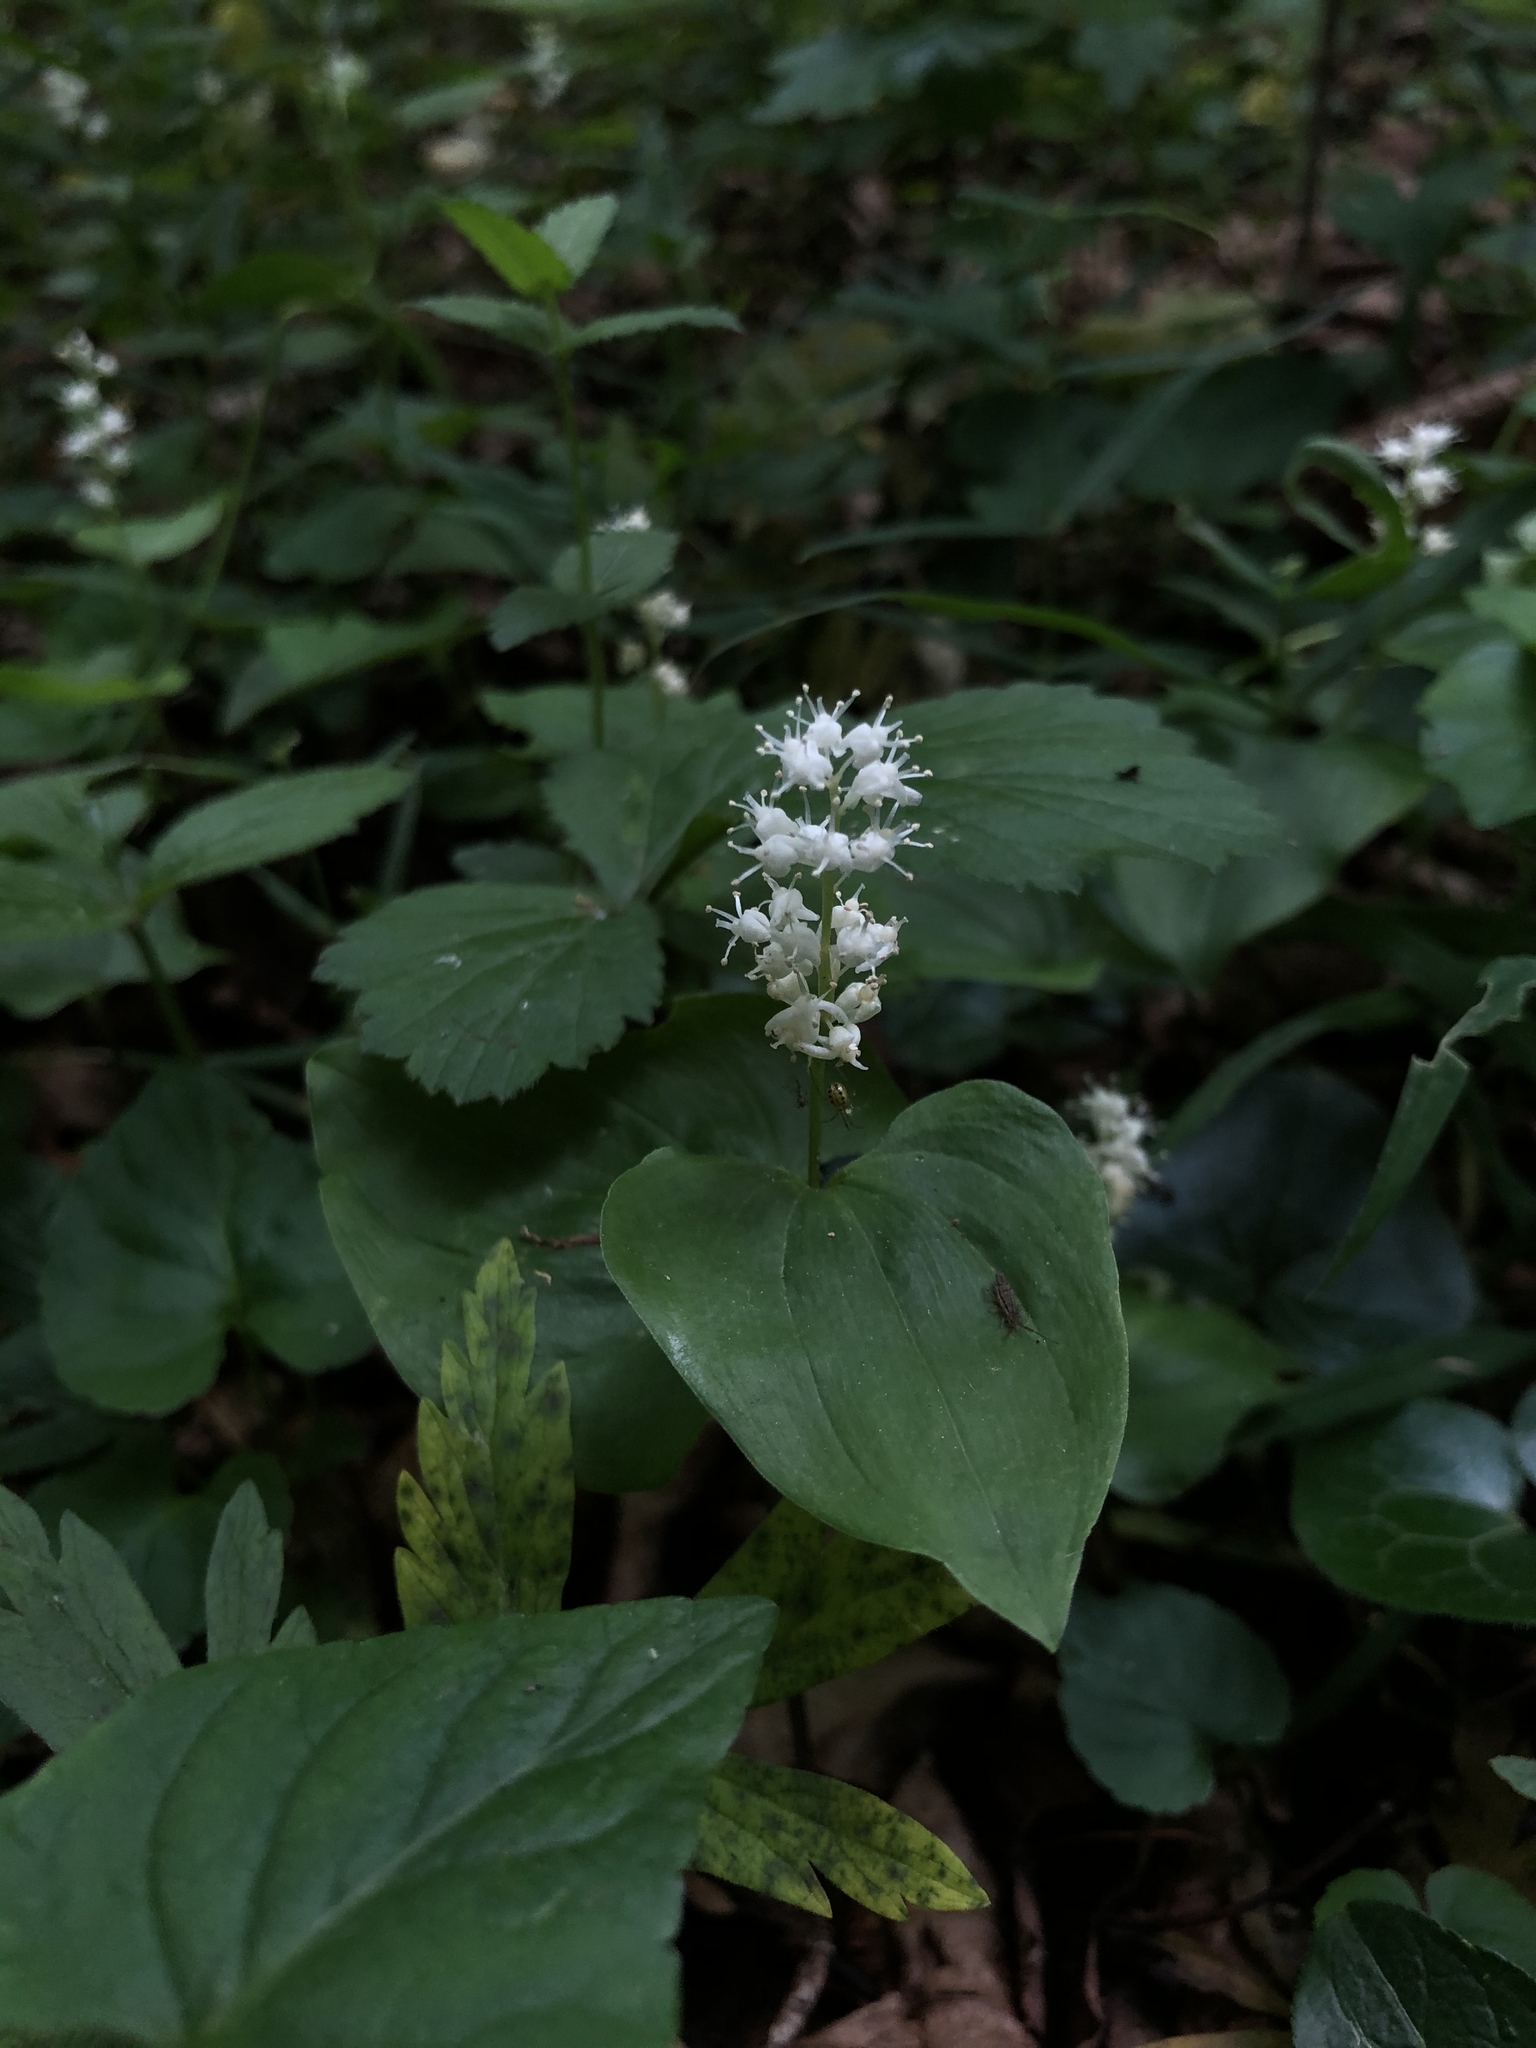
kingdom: Plantae
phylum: Tracheophyta
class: Liliopsida
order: Asparagales
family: Asparagaceae
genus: Maianthemum
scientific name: Maianthemum bifolium
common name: May lily
